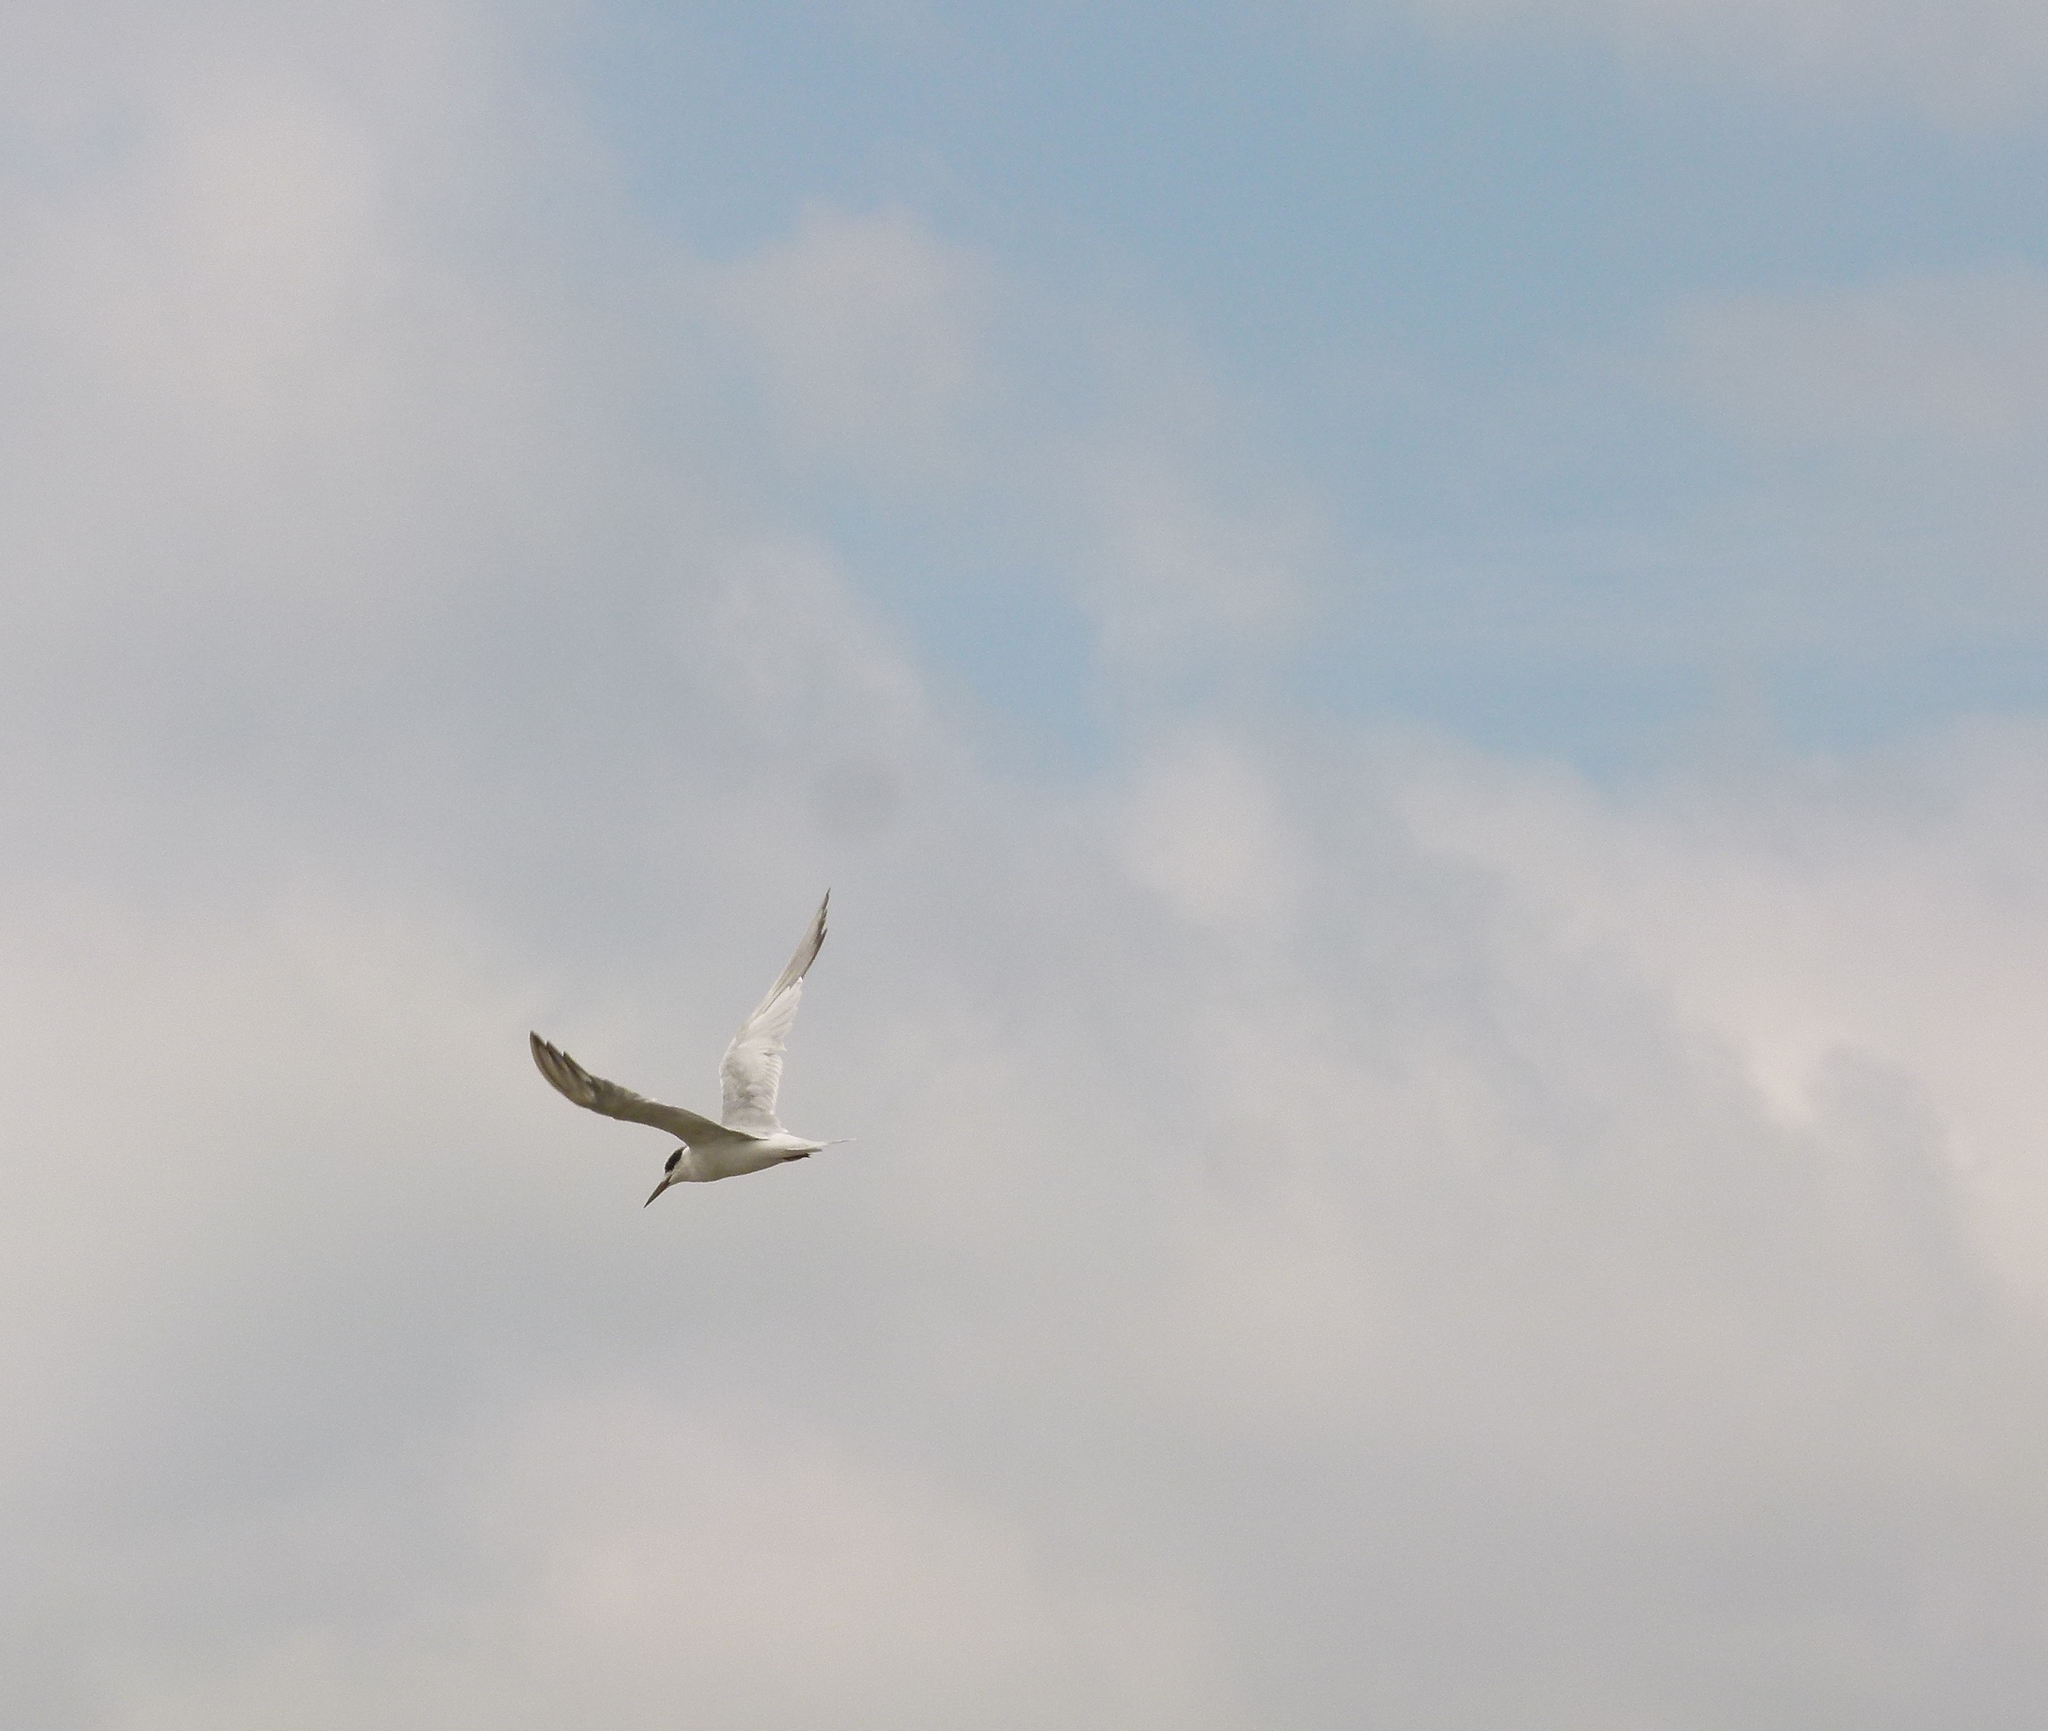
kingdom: Animalia
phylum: Chordata
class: Aves
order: Charadriiformes
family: Laridae
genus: Sterna
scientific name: Sterna forsteri
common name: Forster's tern
